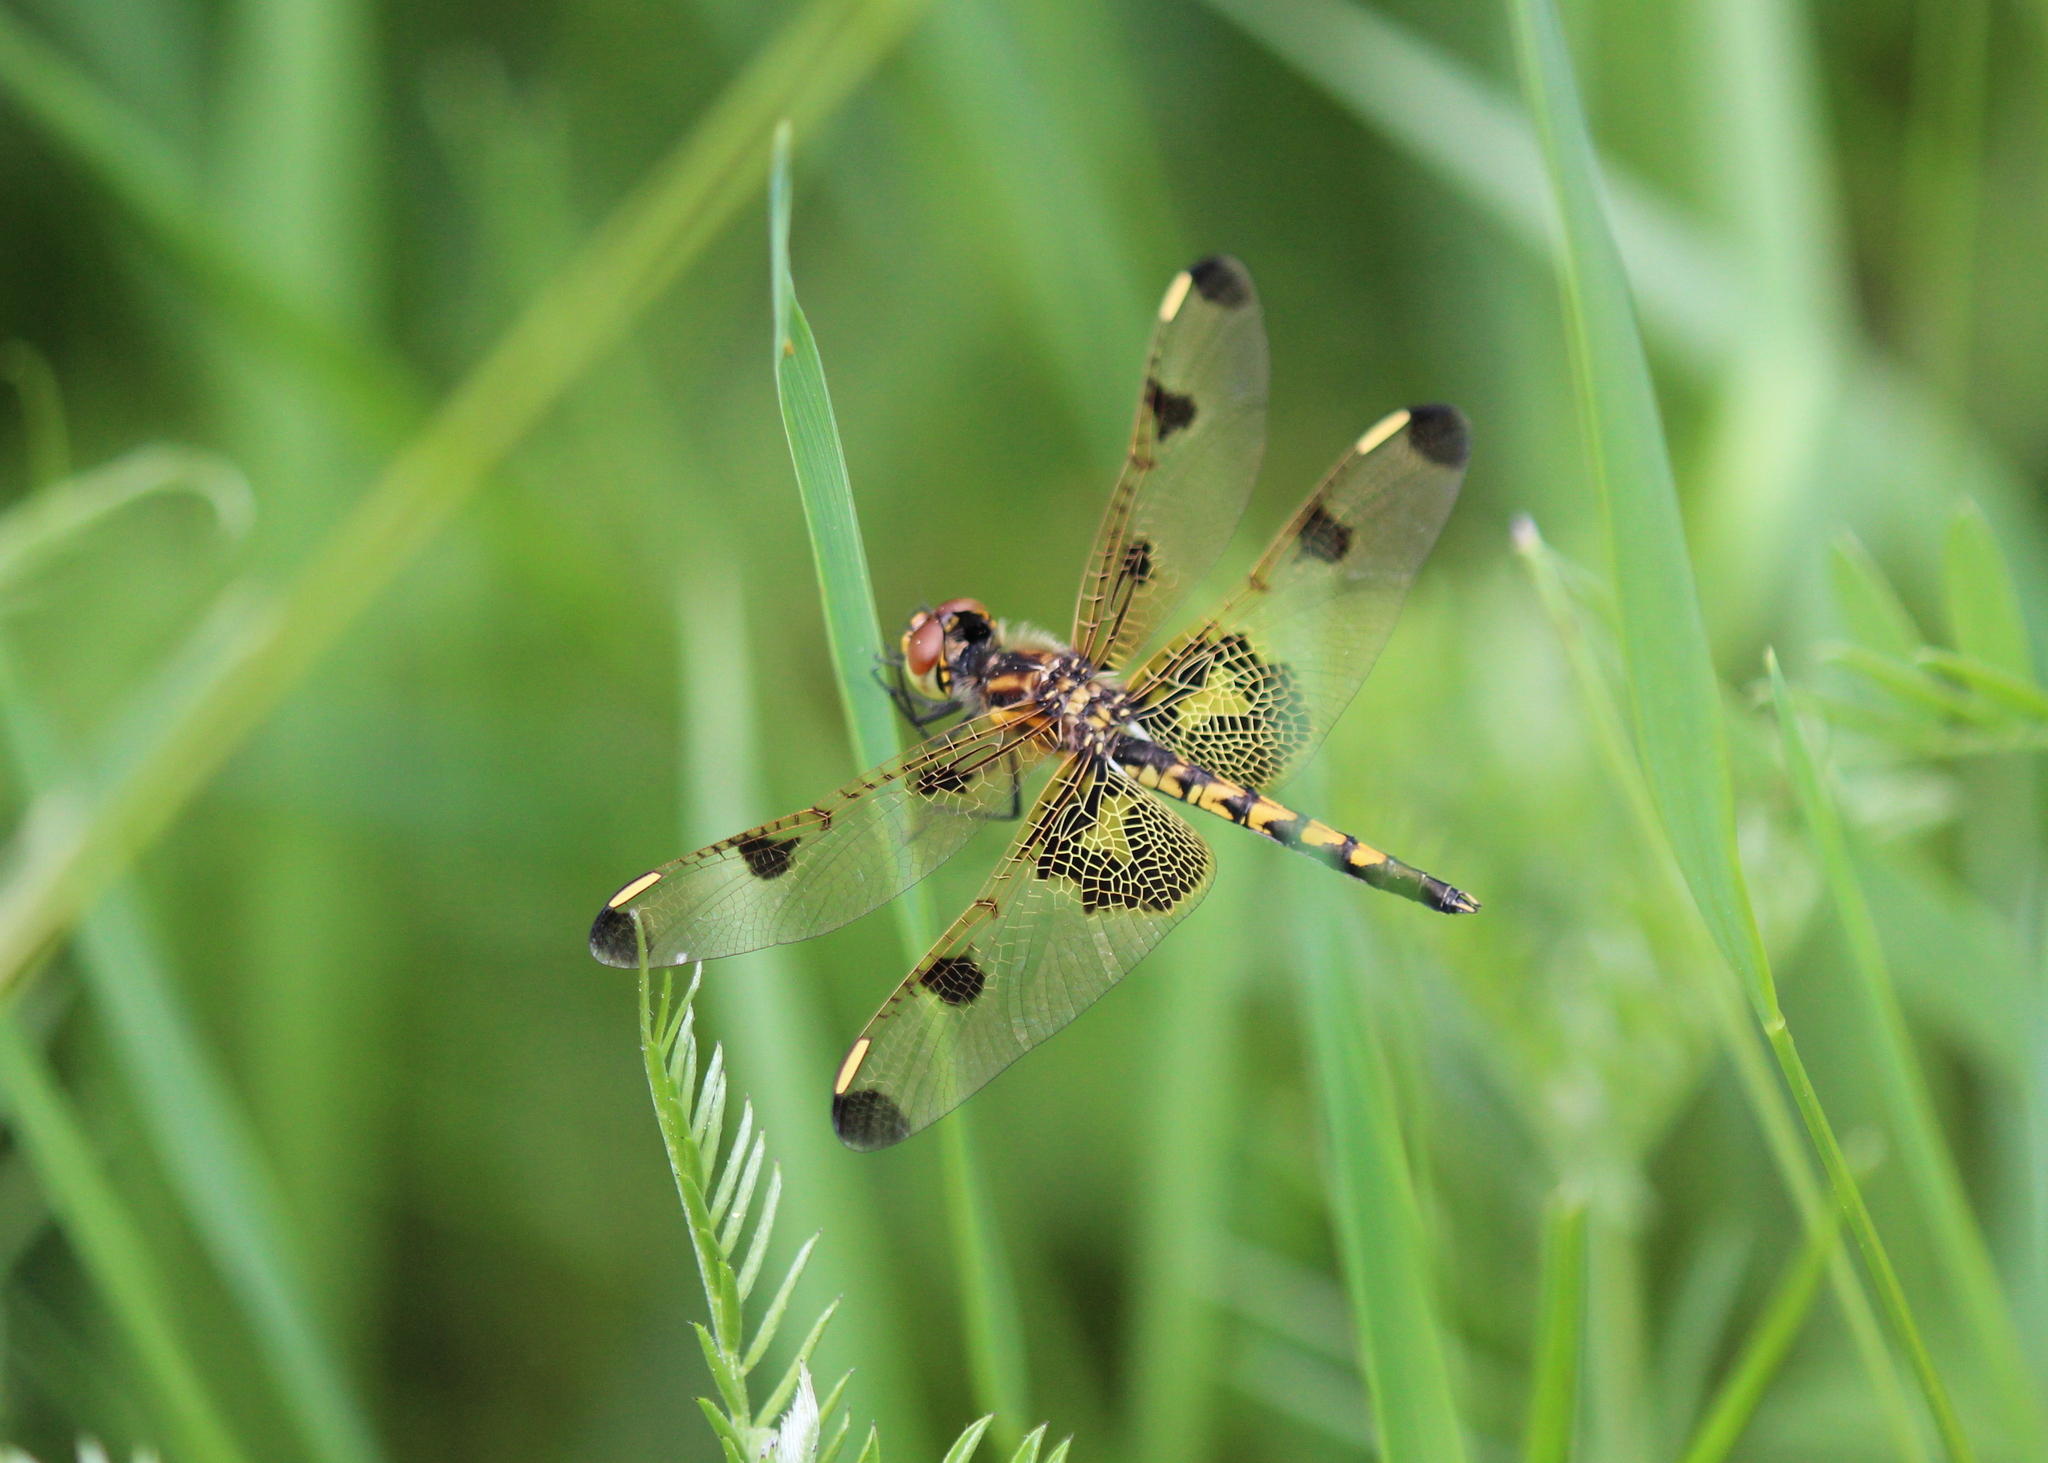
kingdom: Animalia
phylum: Arthropoda
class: Insecta
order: Odonata
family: Libellulidae
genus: Celithemis
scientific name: Celithemis elisa
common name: Calico pennant
